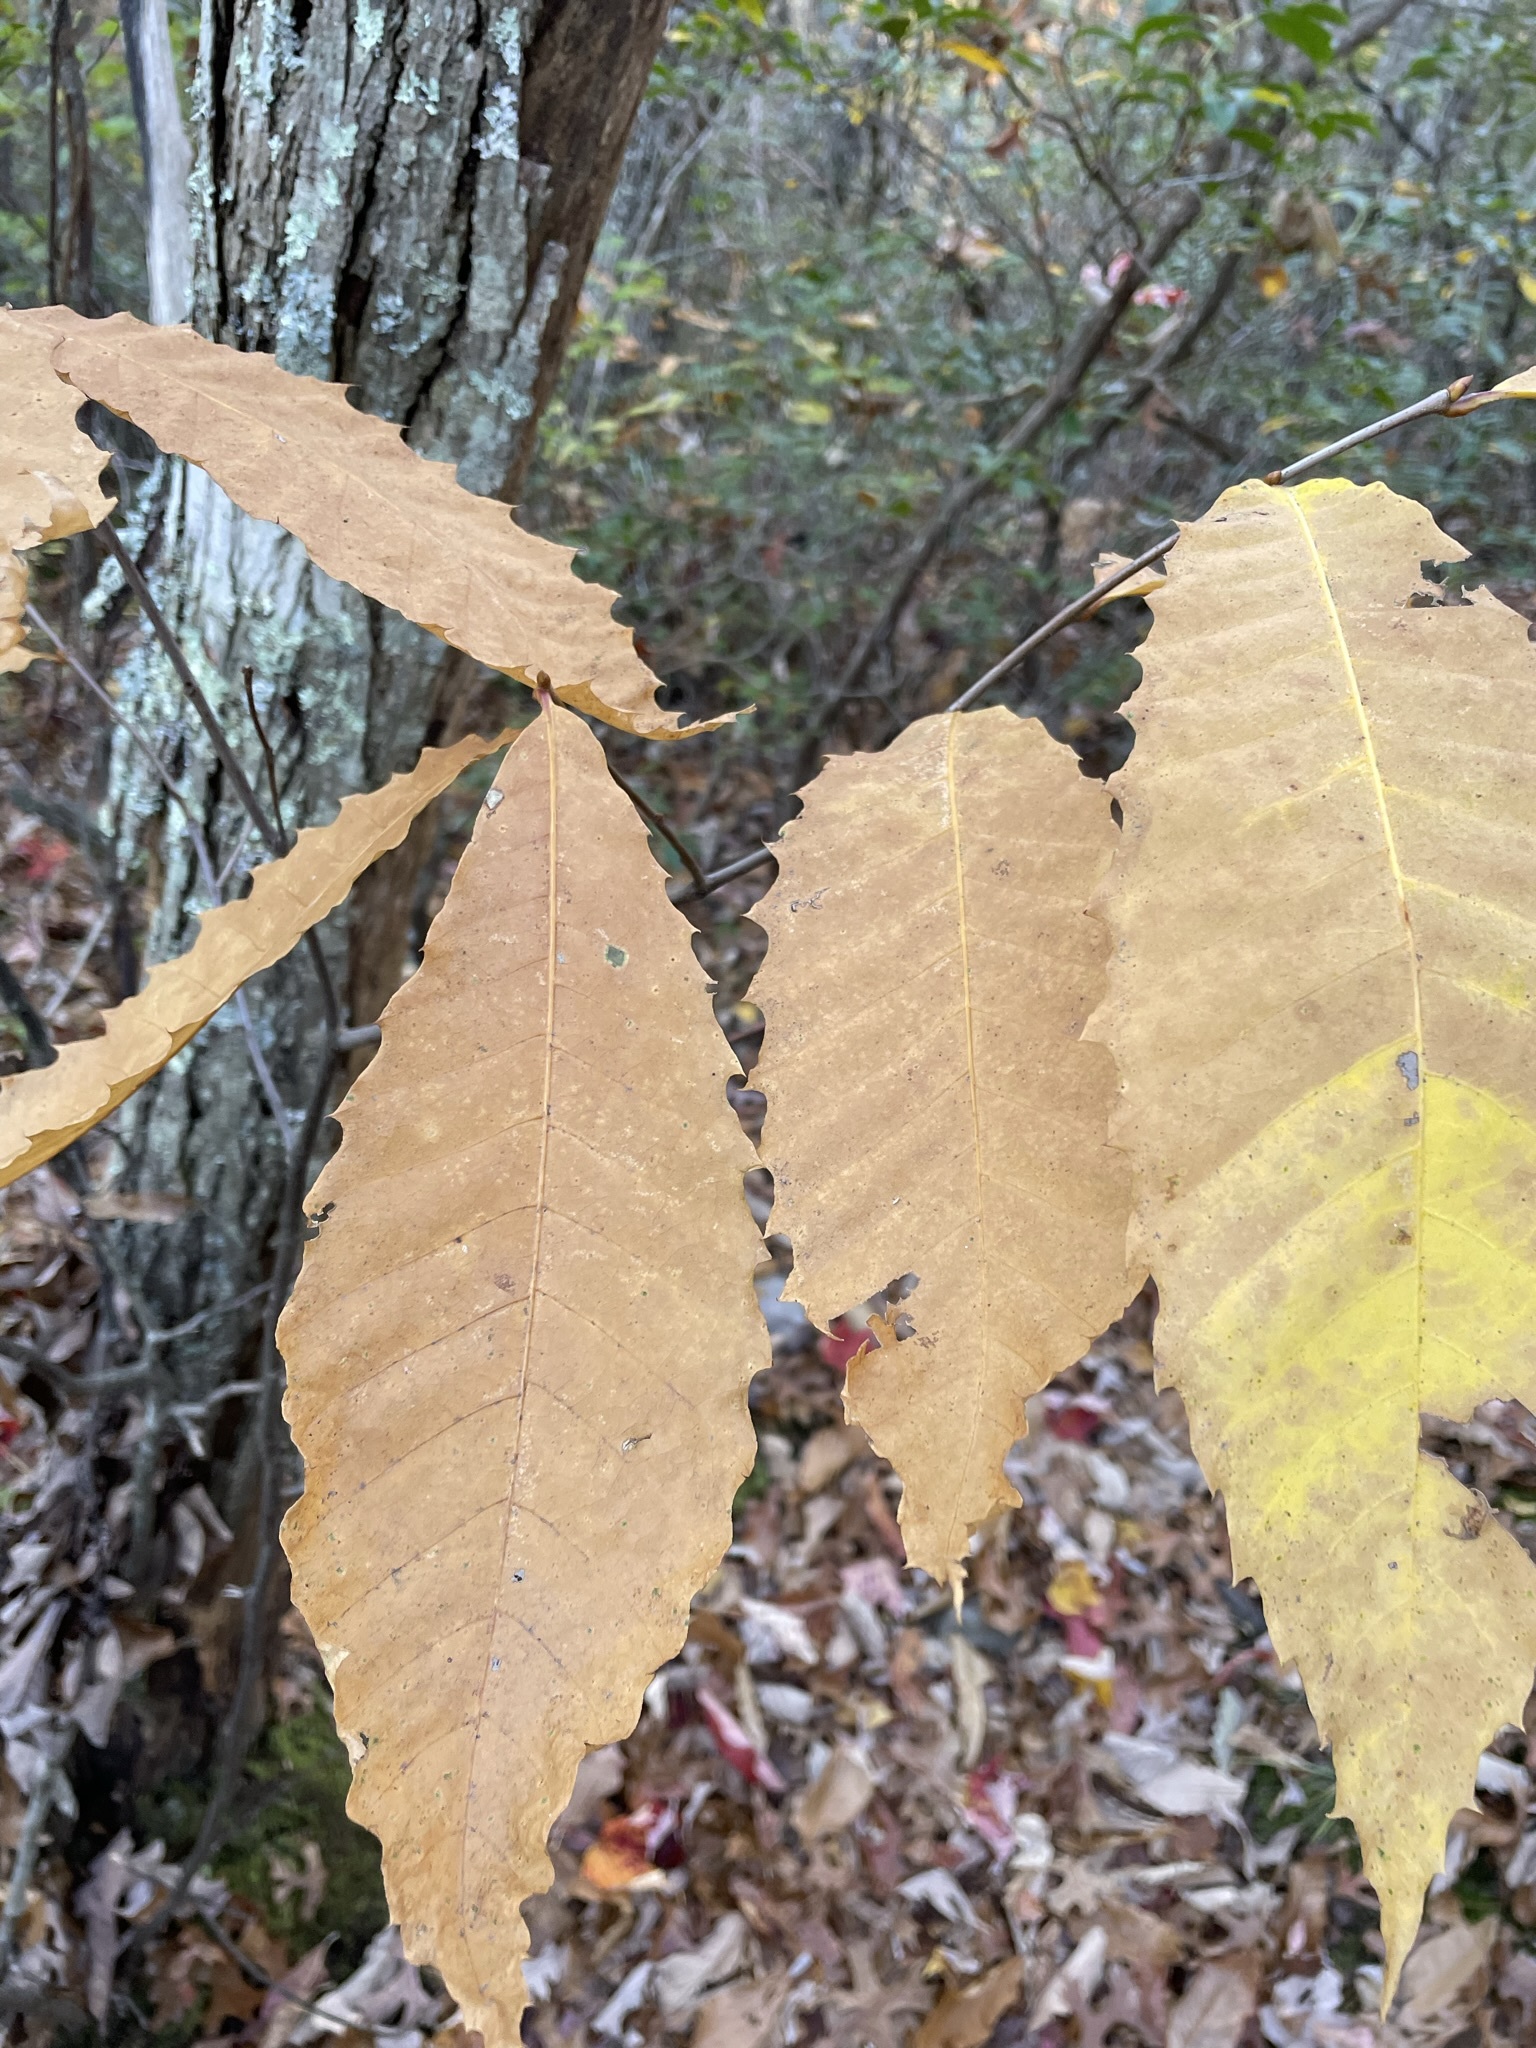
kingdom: Plantae
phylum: Tracheophyta
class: Magnoliopsida
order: Fagales
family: Fagaceae
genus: Castanea
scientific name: Castanea dentata
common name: American chestnut
